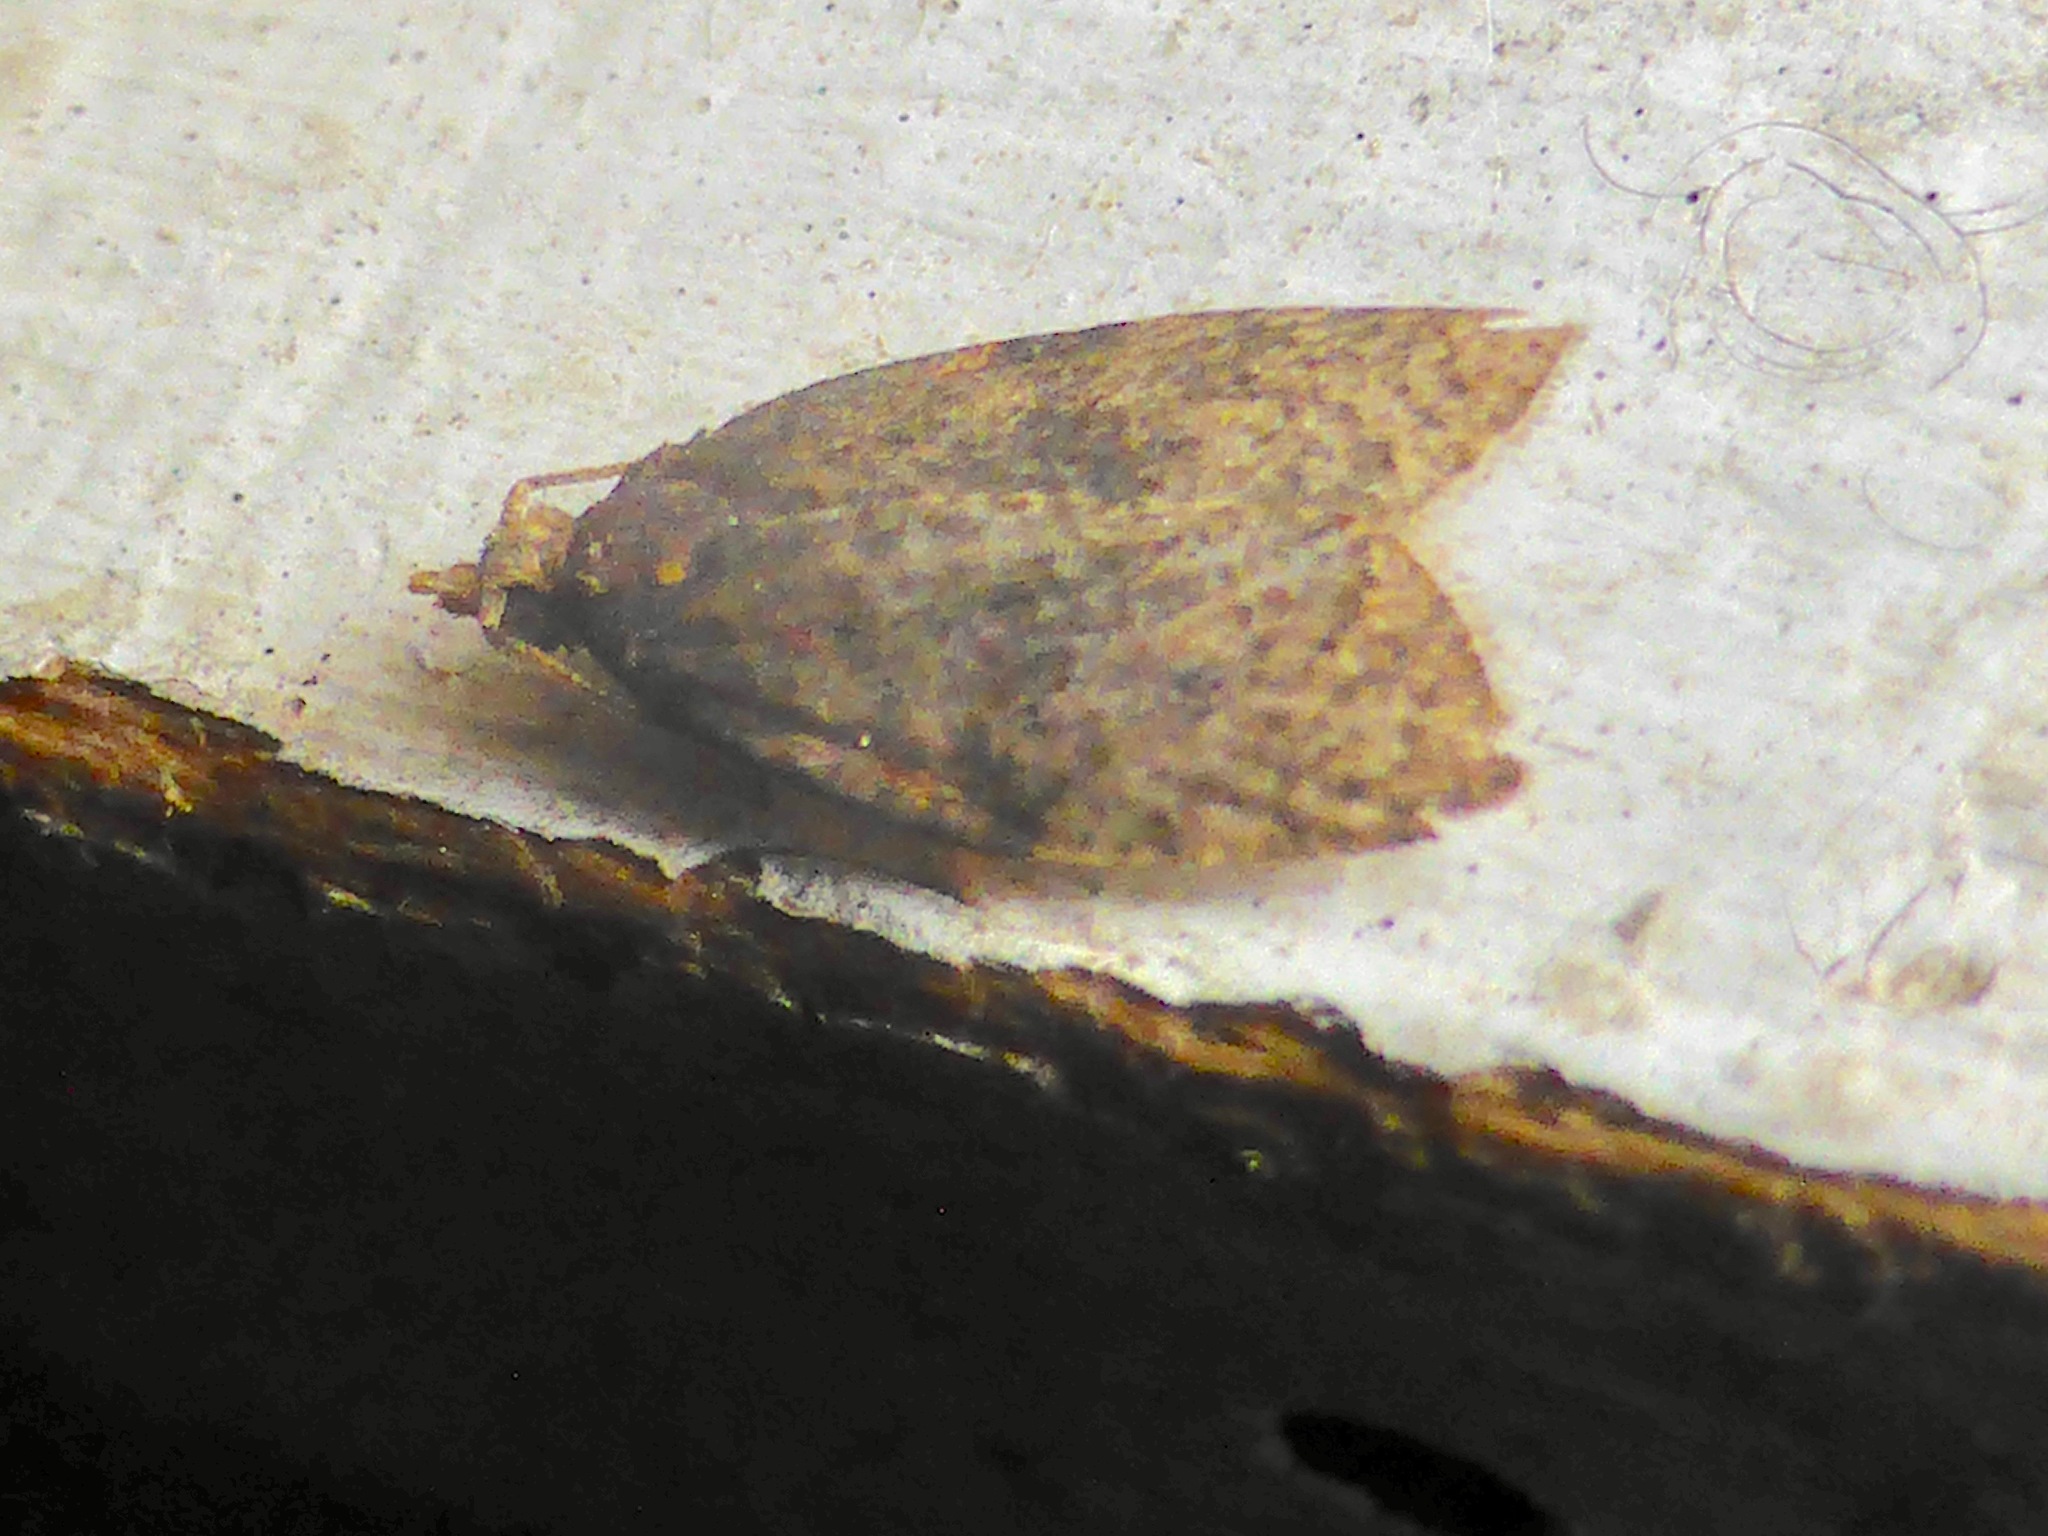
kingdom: Animalia
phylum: Arthropoda
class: Insecta
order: Lepidoptera
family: Tortricidae
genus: Capua
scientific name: Capua intractana
